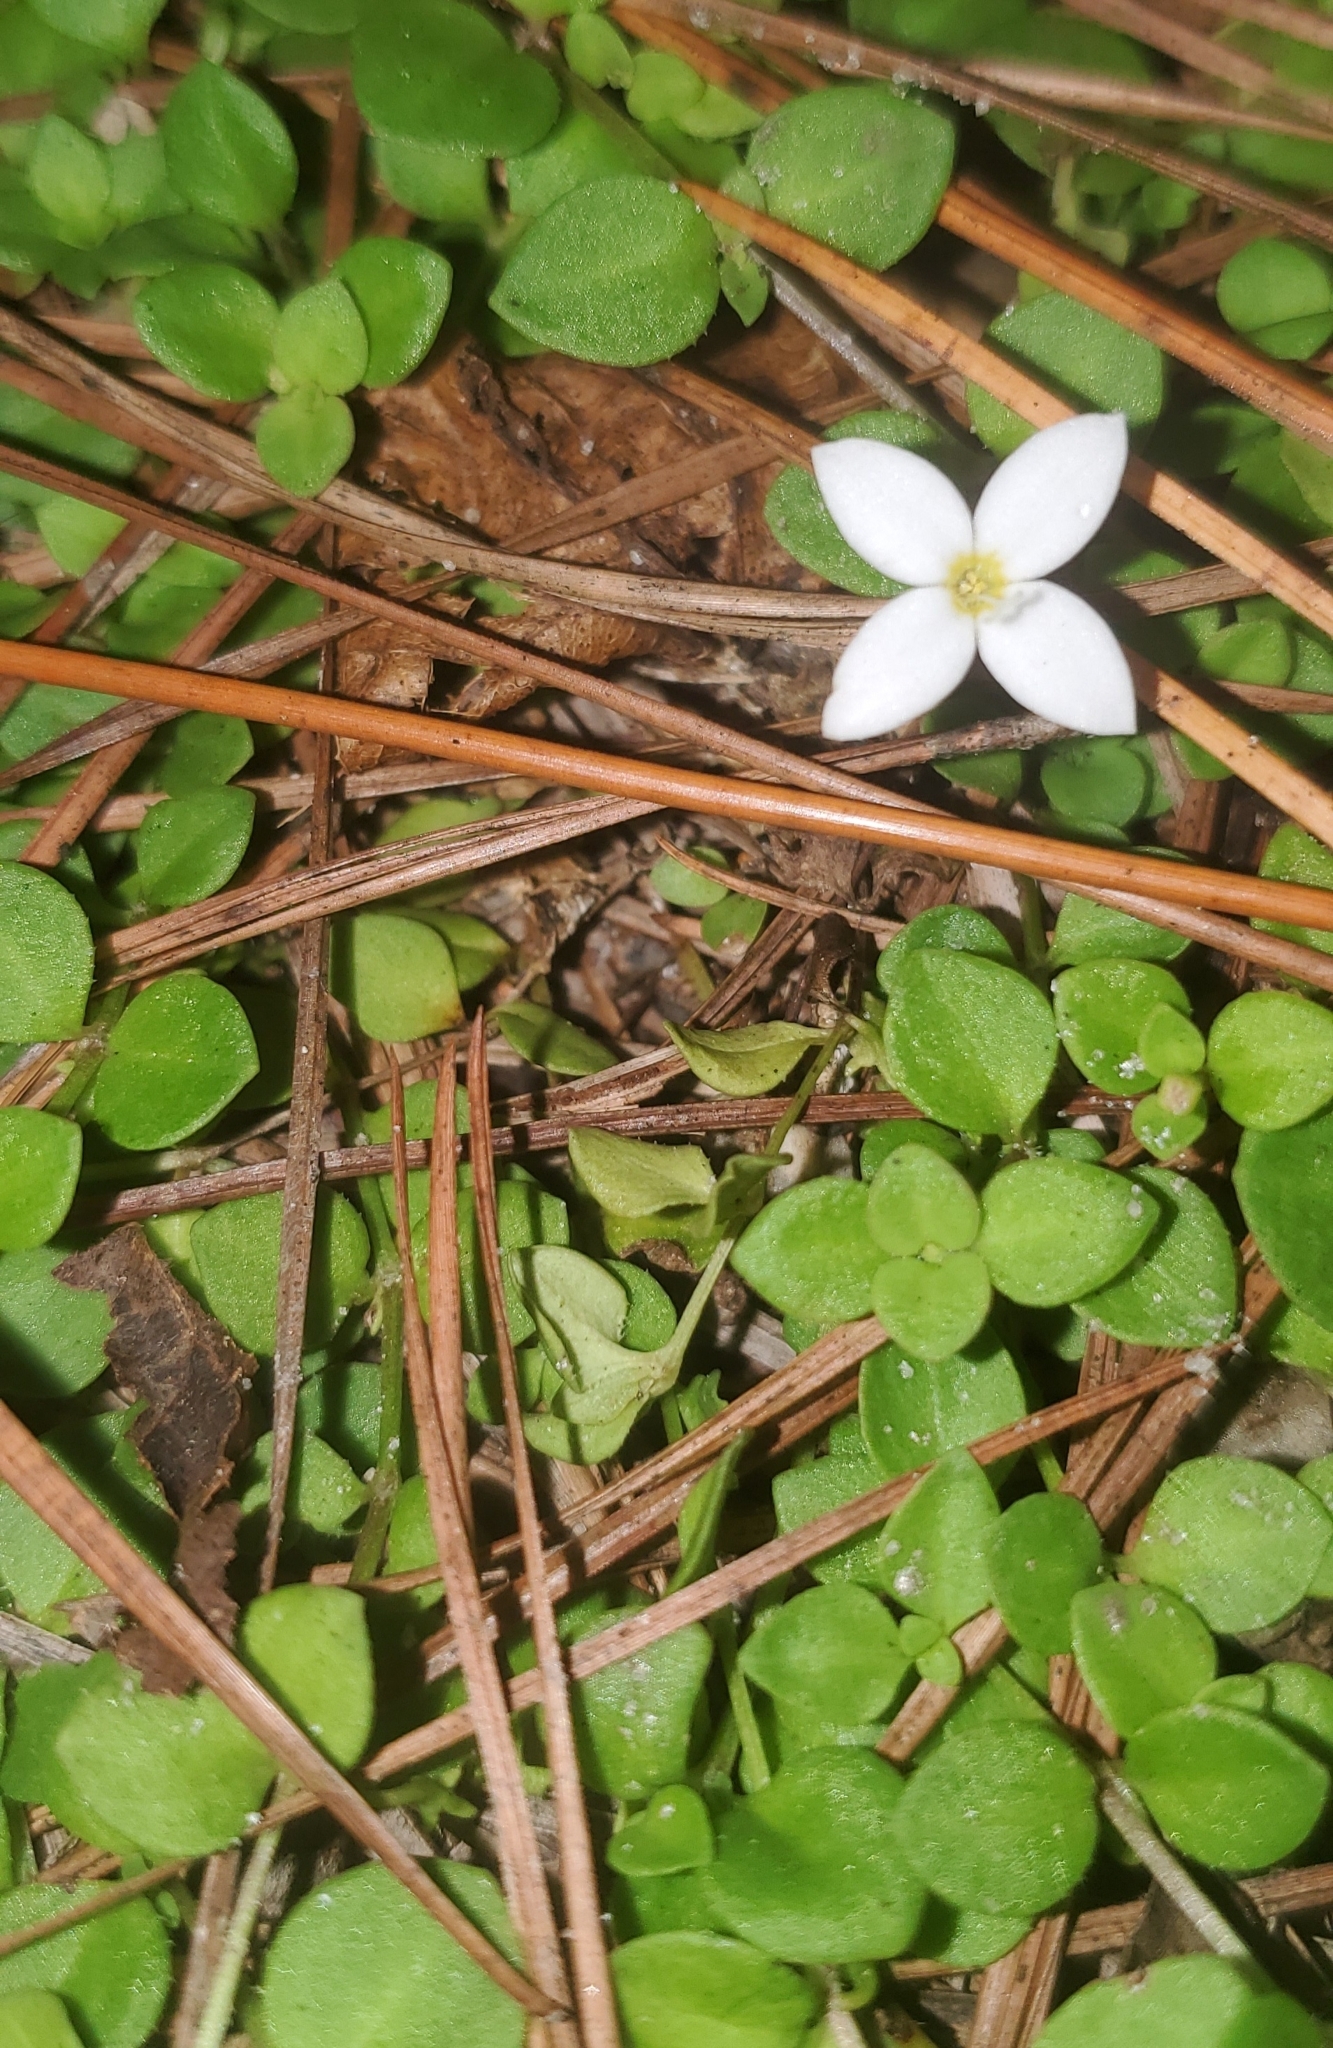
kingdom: Plantae
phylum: Tracheophyta
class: Magnoliopsida
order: Gentianales
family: Rubiaceae
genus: Houstonia
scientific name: Houstonia procumbens
